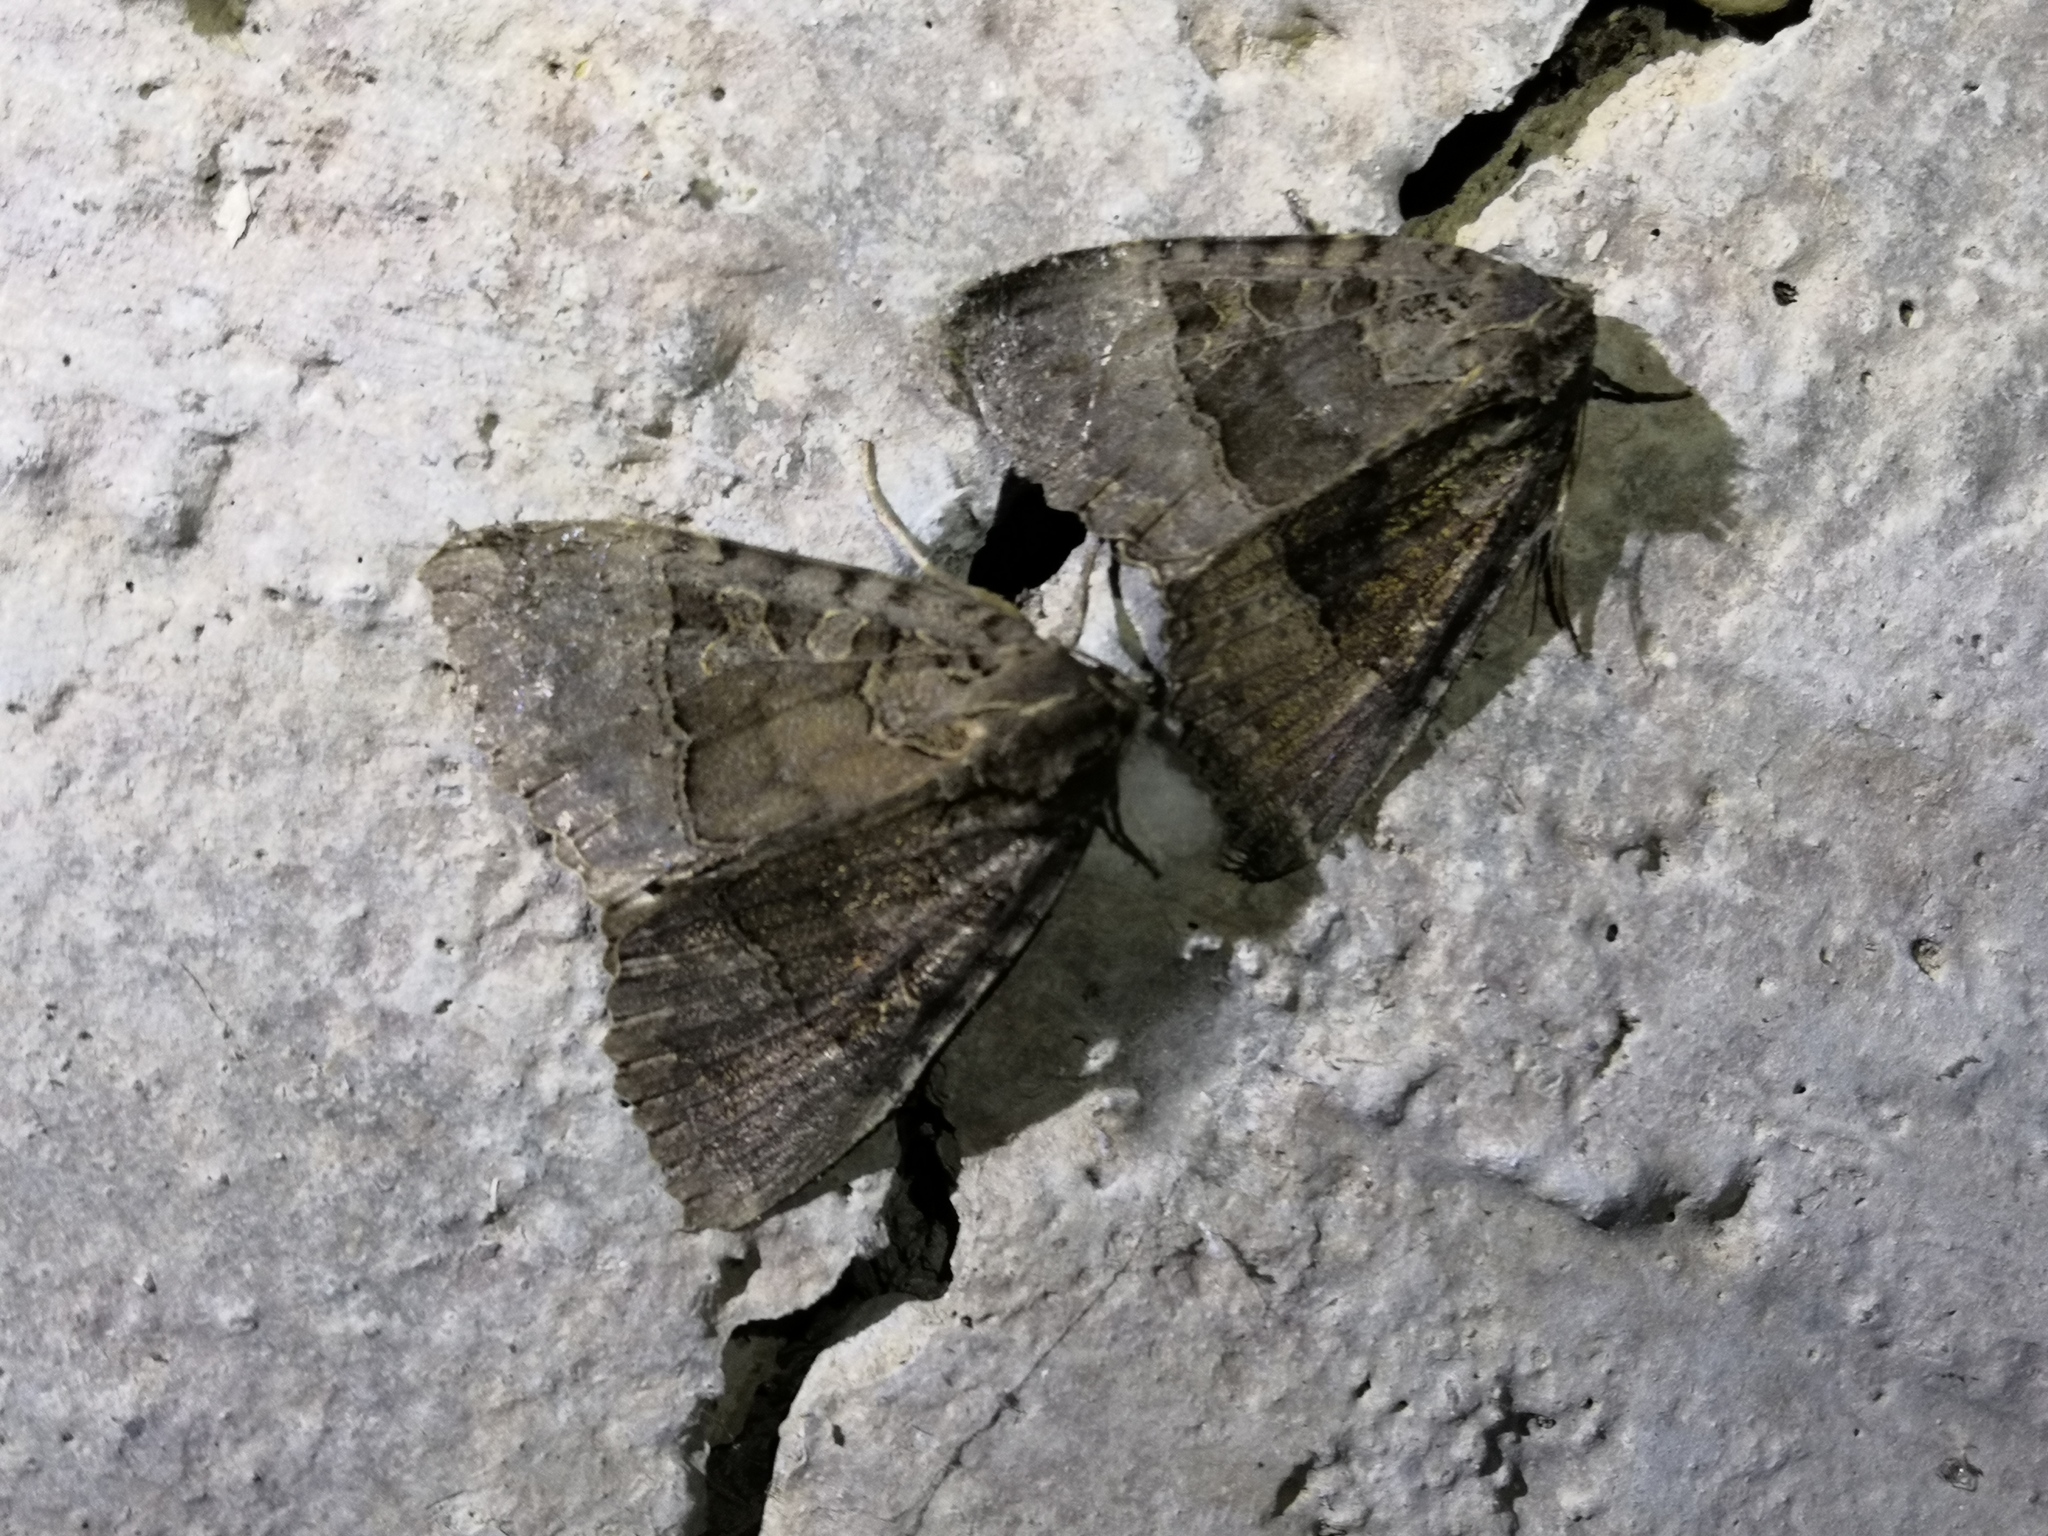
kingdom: Animalia
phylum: Arthropoda
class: Insecta
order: Lepidoptera
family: Noctuidae
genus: Mormo
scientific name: Mormo maura
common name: Old lady
